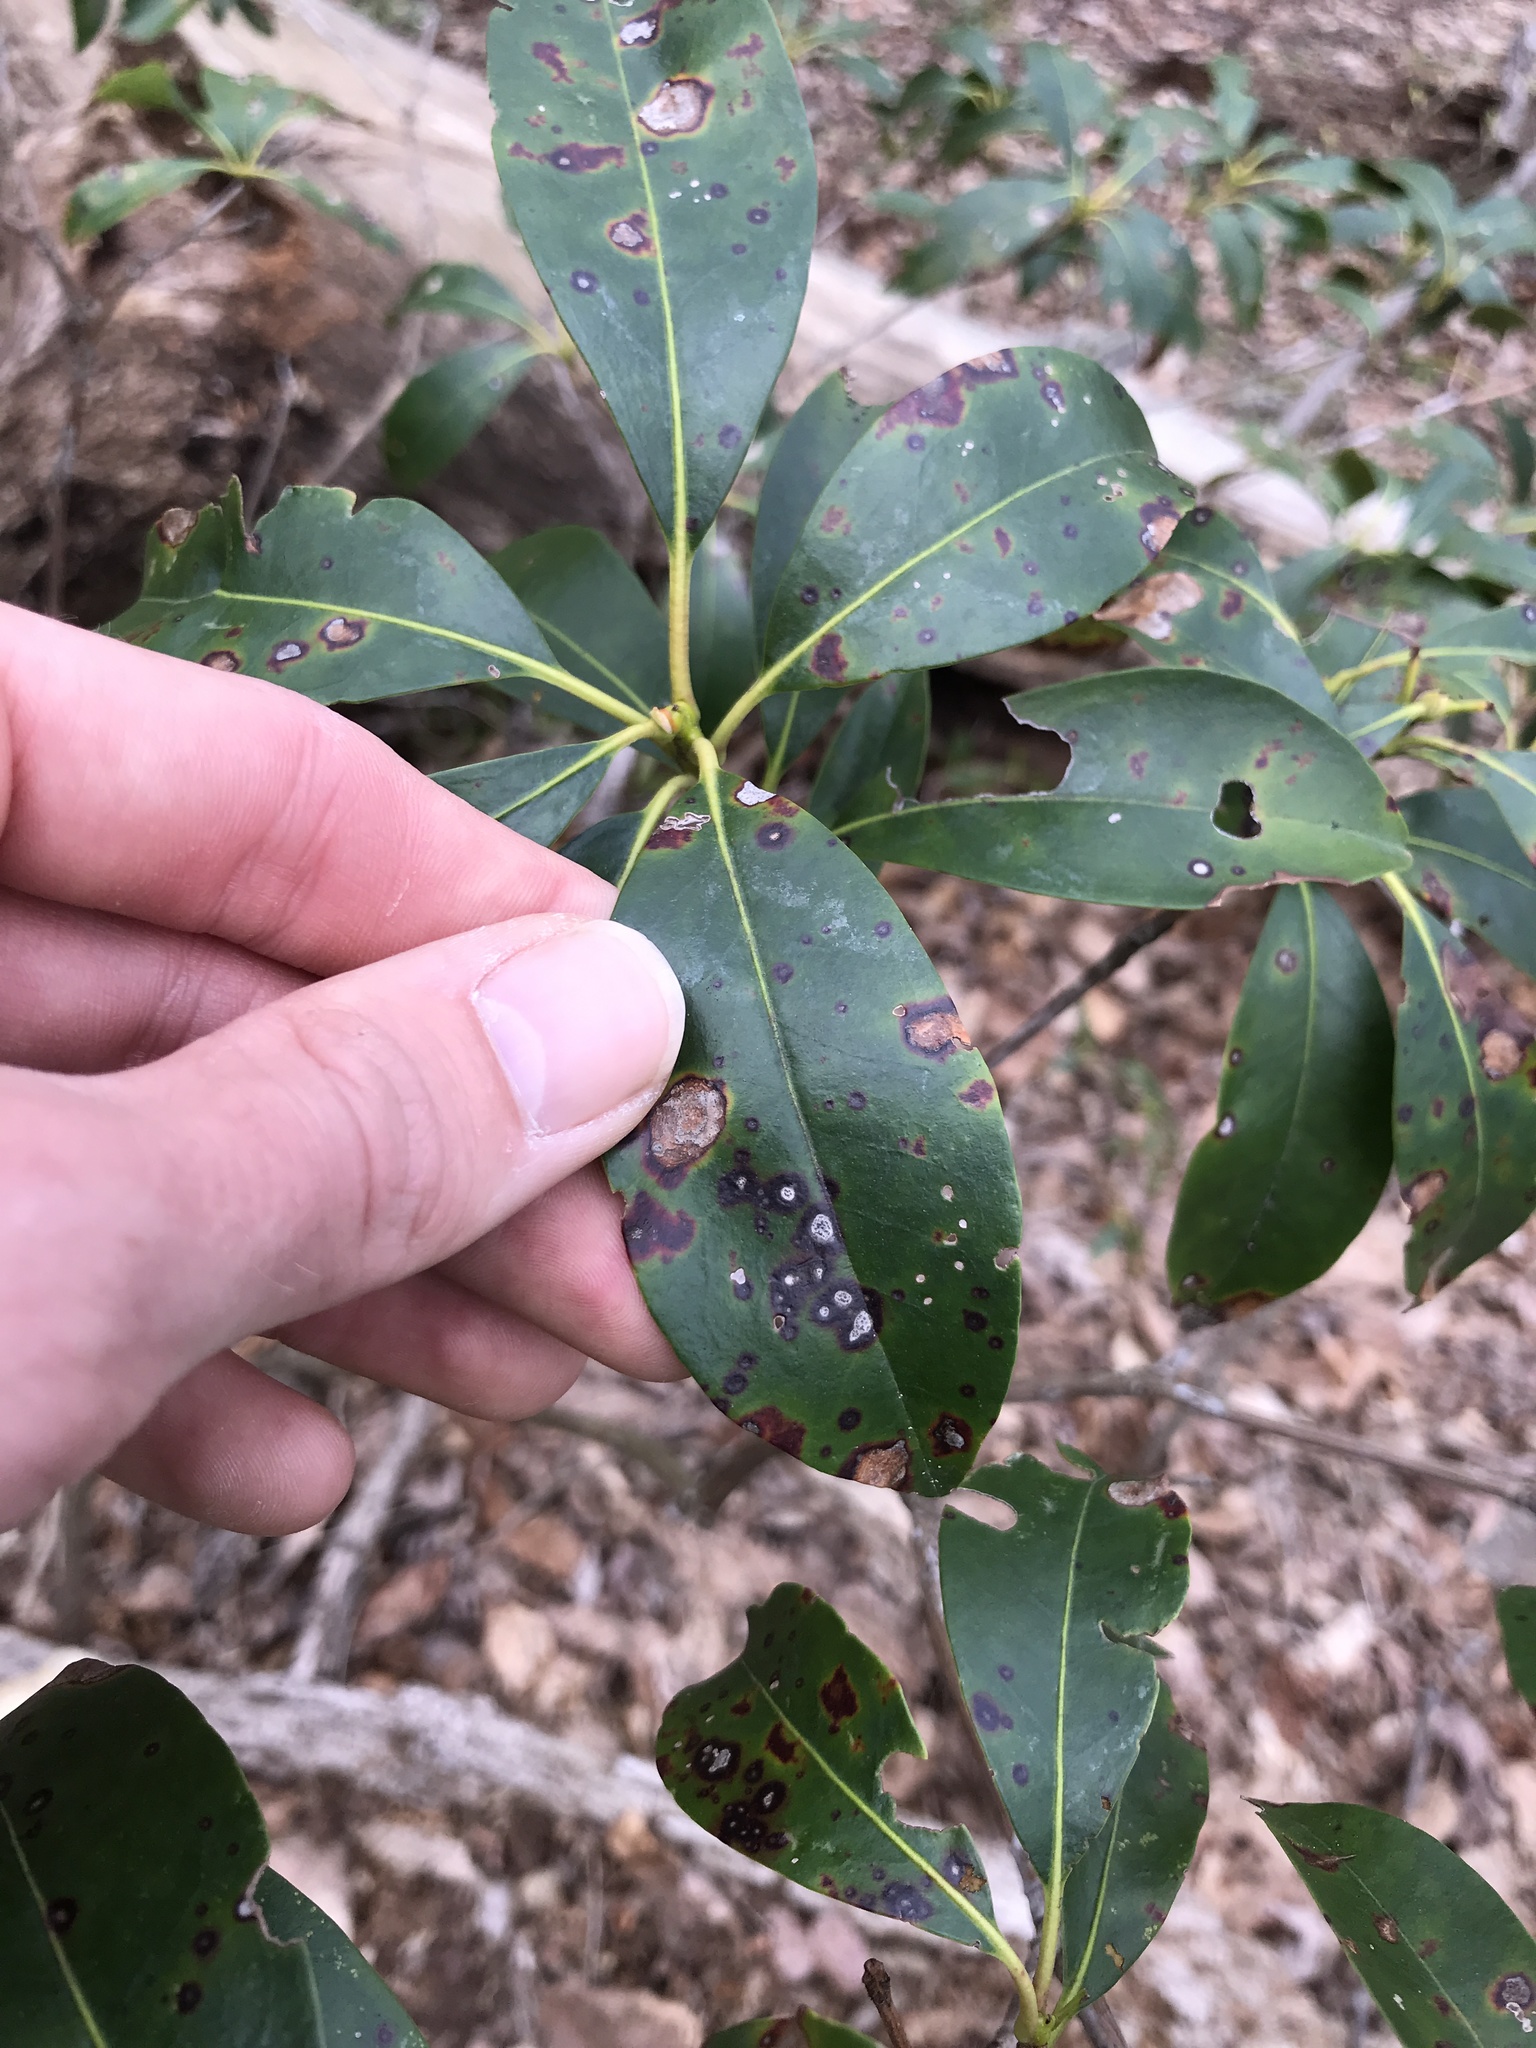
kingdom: Fungi
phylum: Ascomycota
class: Dothideomycetes
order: Mycosphaerellales
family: Mycosphaerellaceae
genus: Mycosphaerella
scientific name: Mycosphaerella colorata
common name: Mountain laurel leaf spot
